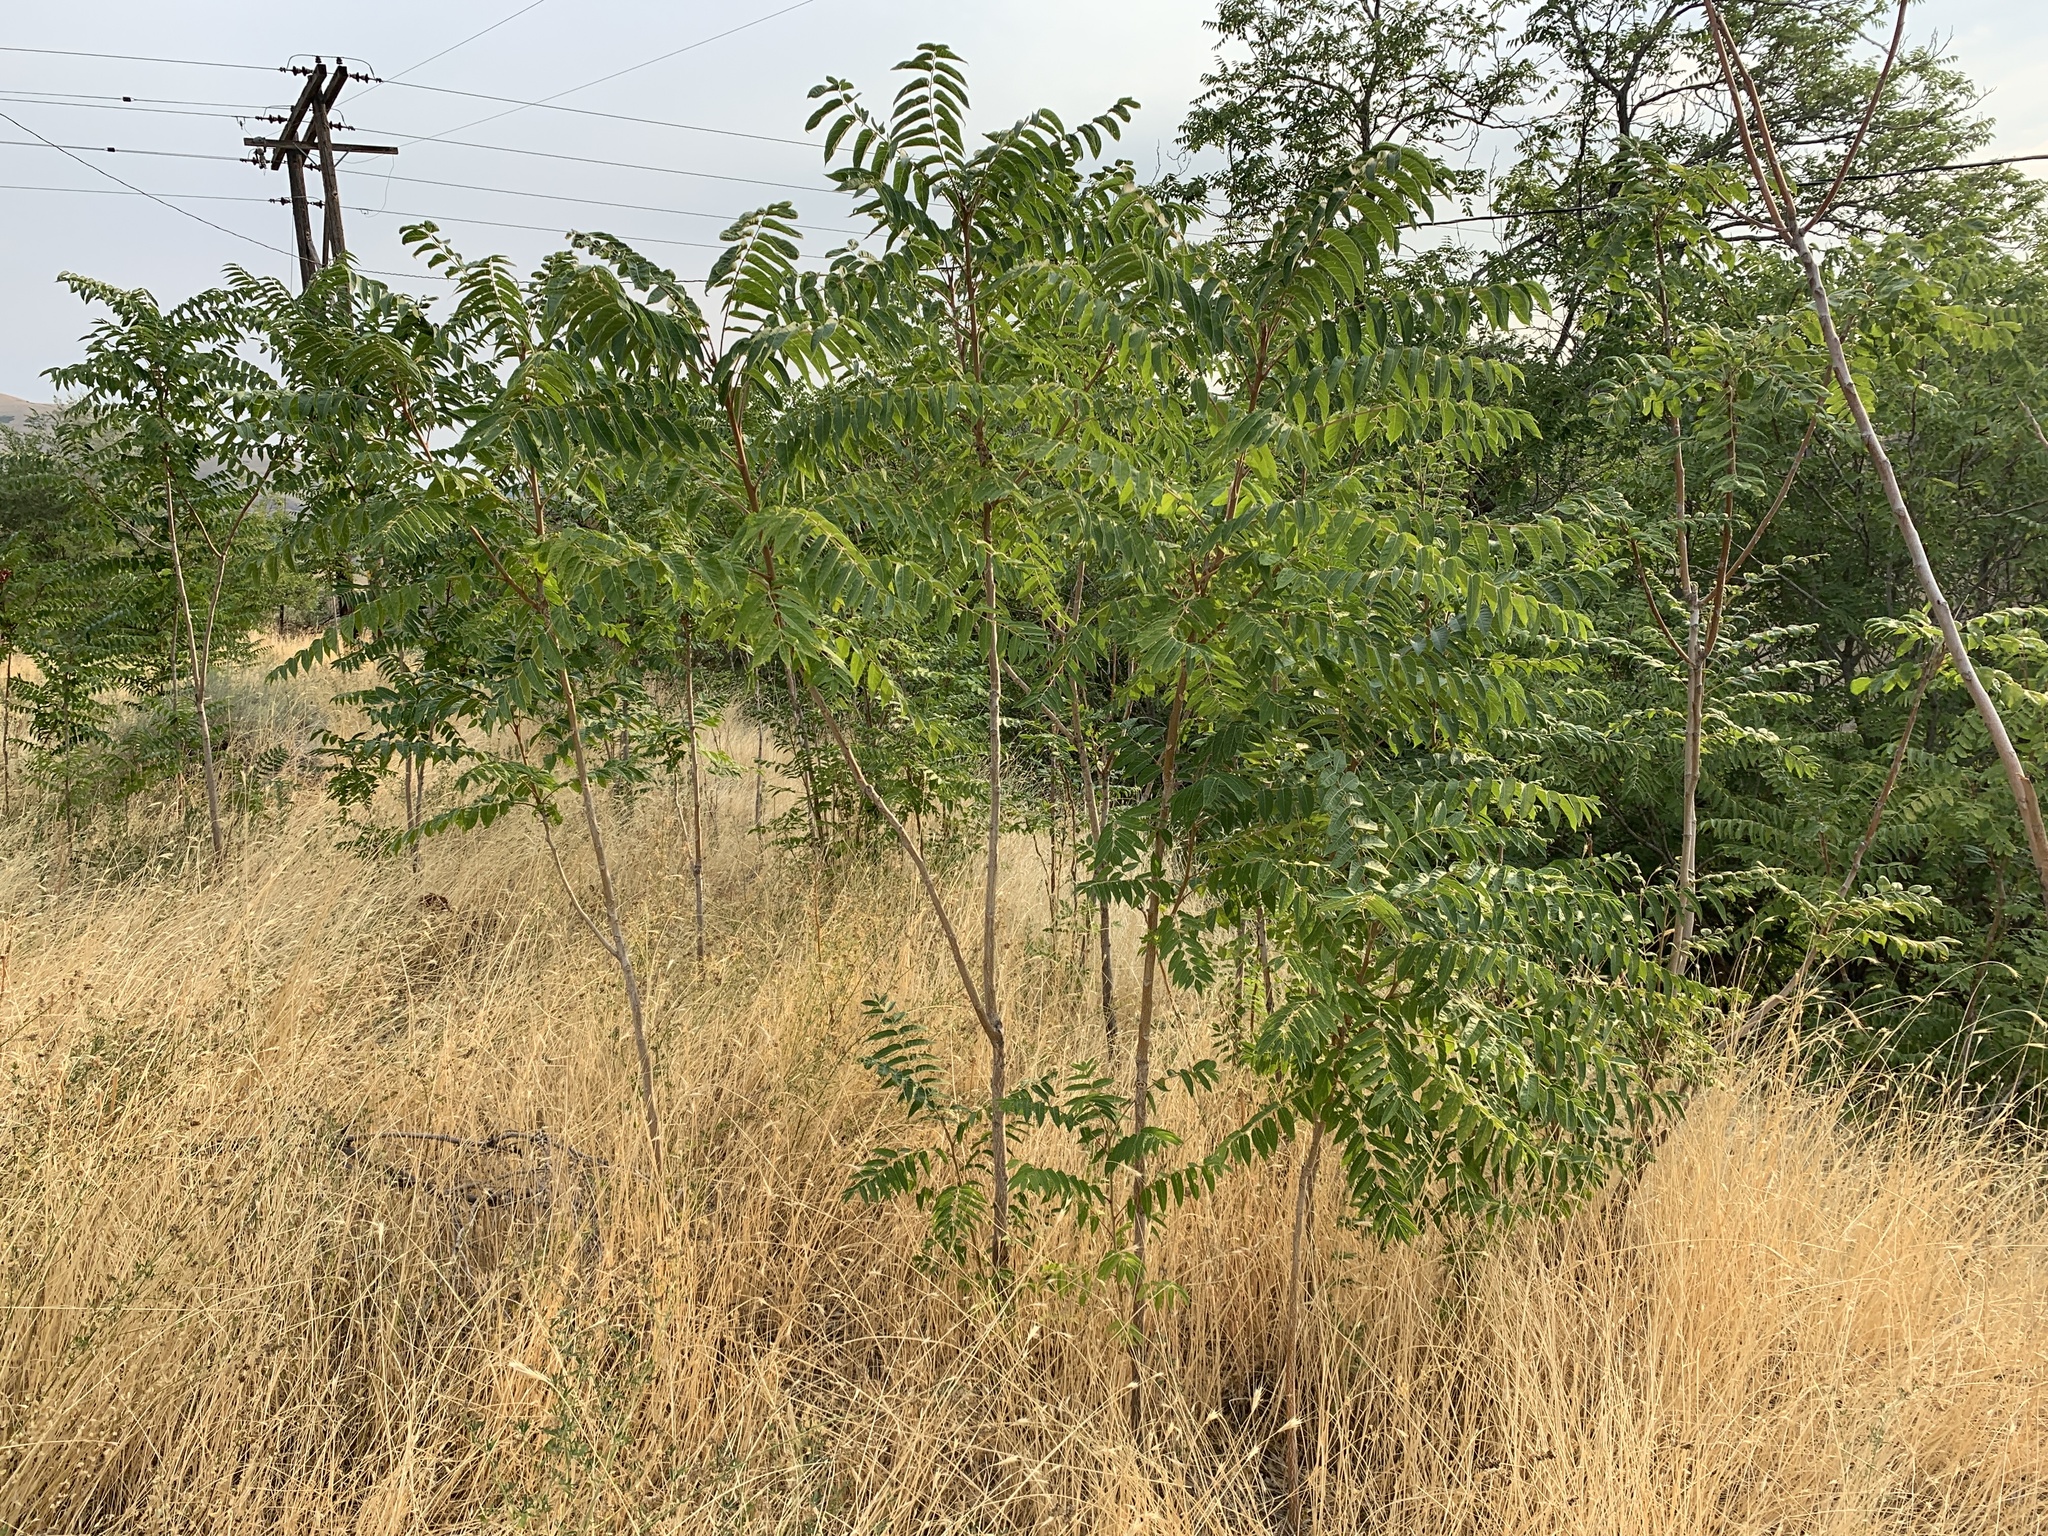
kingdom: Plantae
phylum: Tracheophyta
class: Magnoliopsida
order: Sapindales
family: Simaroubaceae
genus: Ailanthus
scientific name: Ailanthus altissima
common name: Tree-of-heaven
